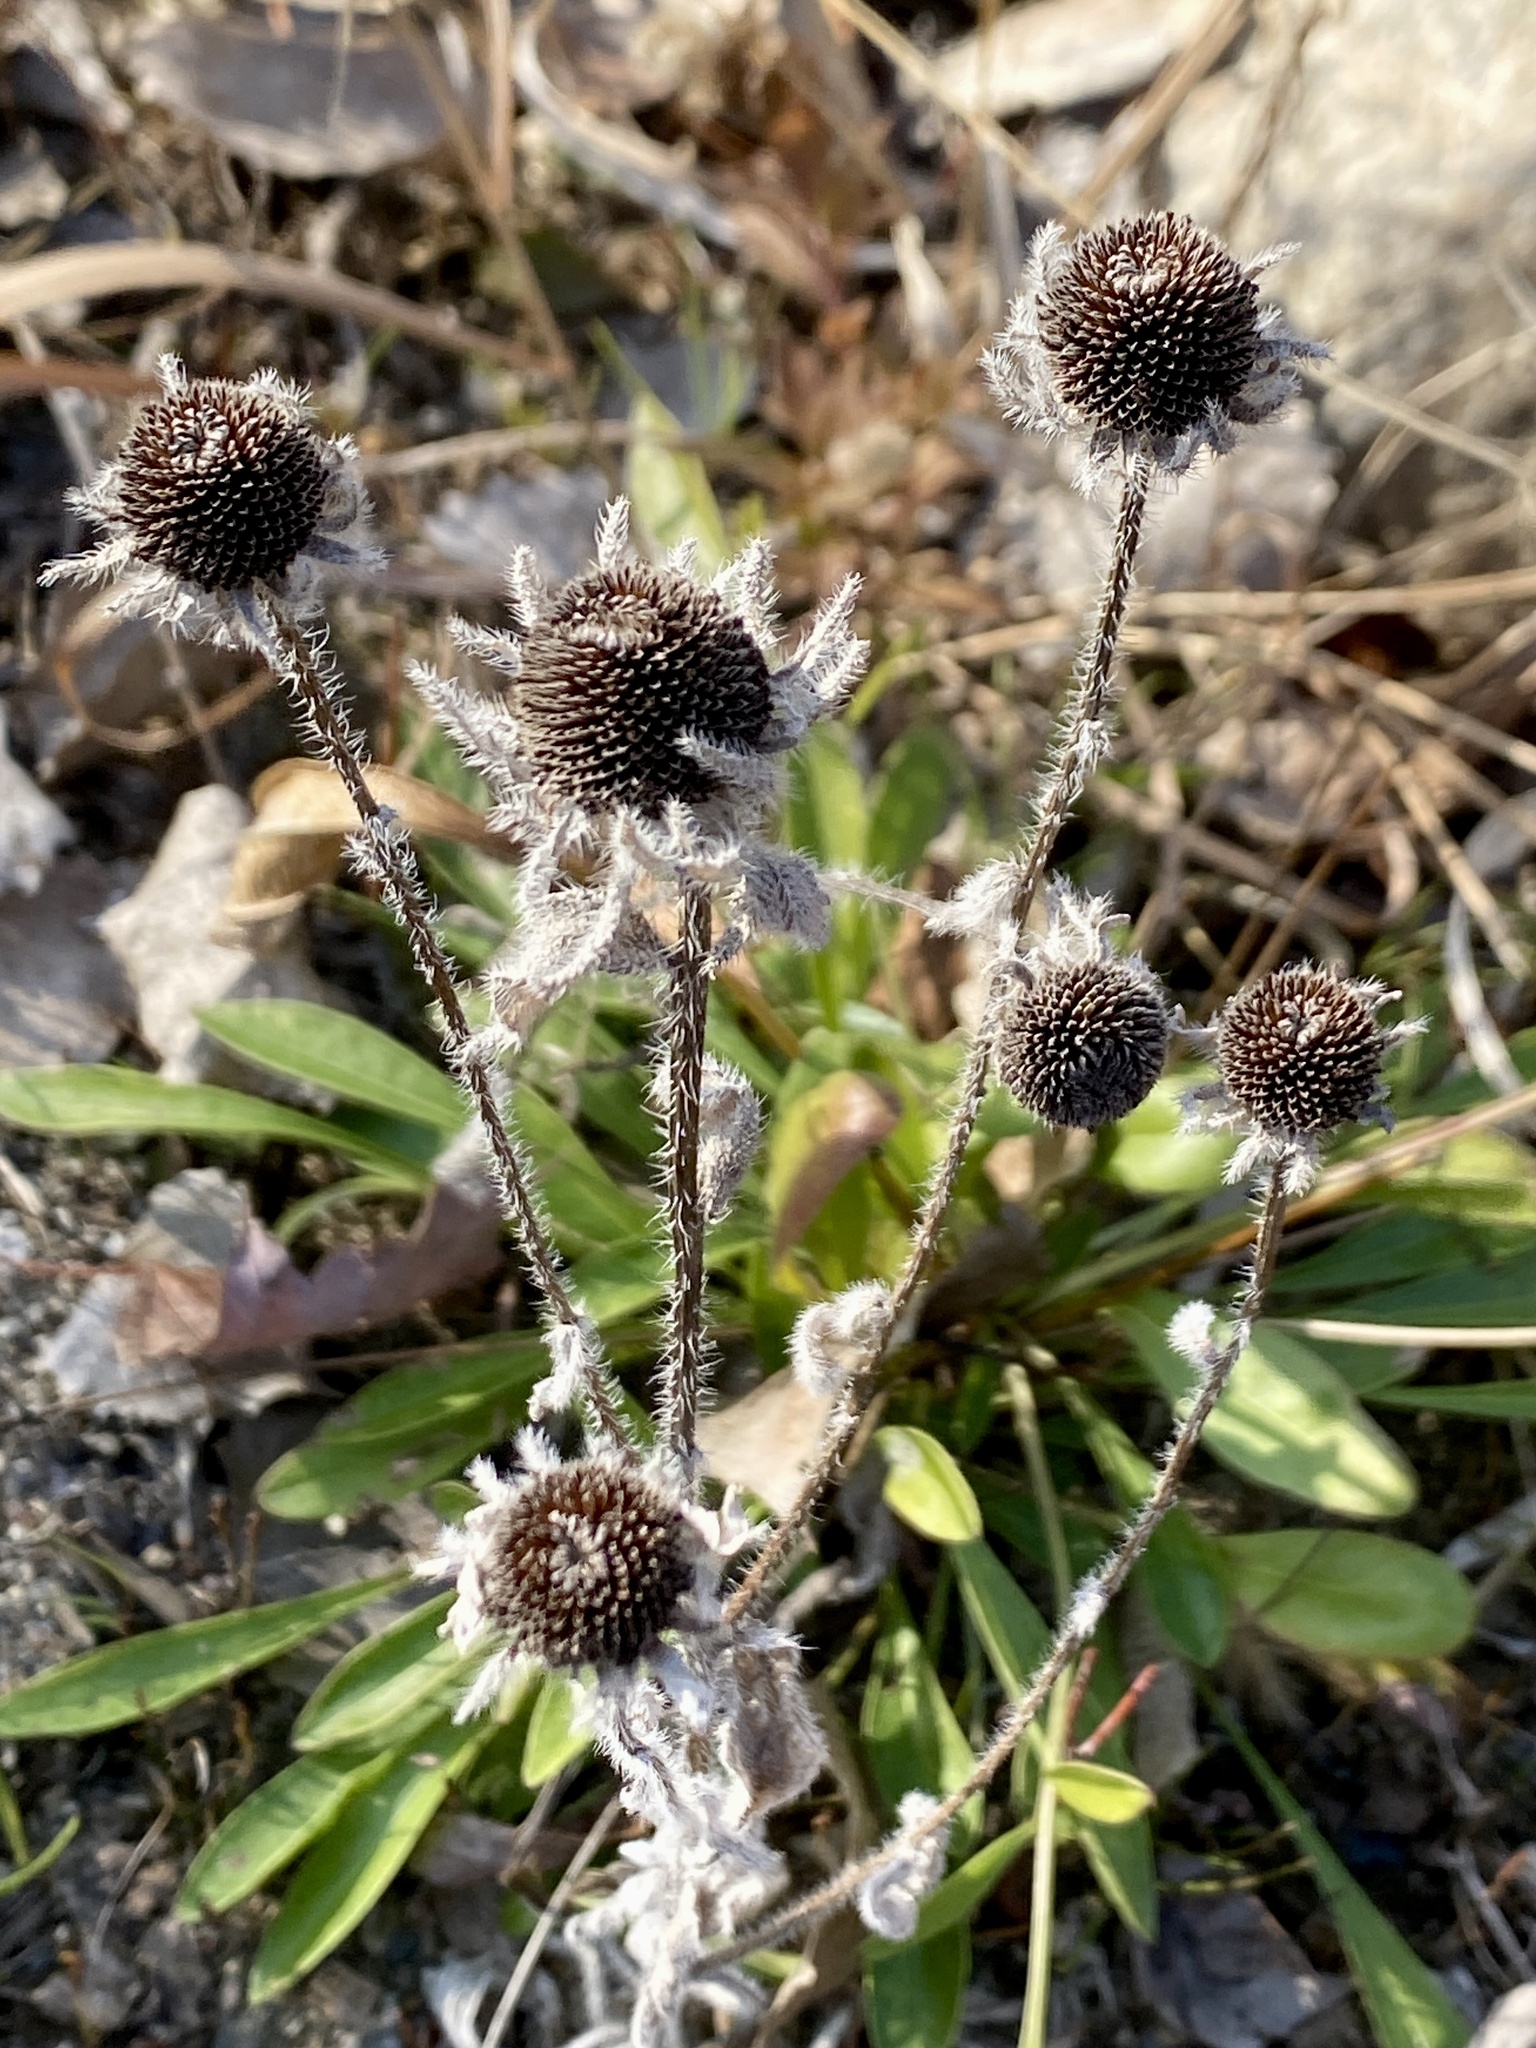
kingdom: Plantae
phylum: Tracheophyta
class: Magnoliopsida
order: Asterales
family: Asteraceae
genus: Rudbeckia
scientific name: Rudbeckia hirta
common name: Black-eyed-susan
